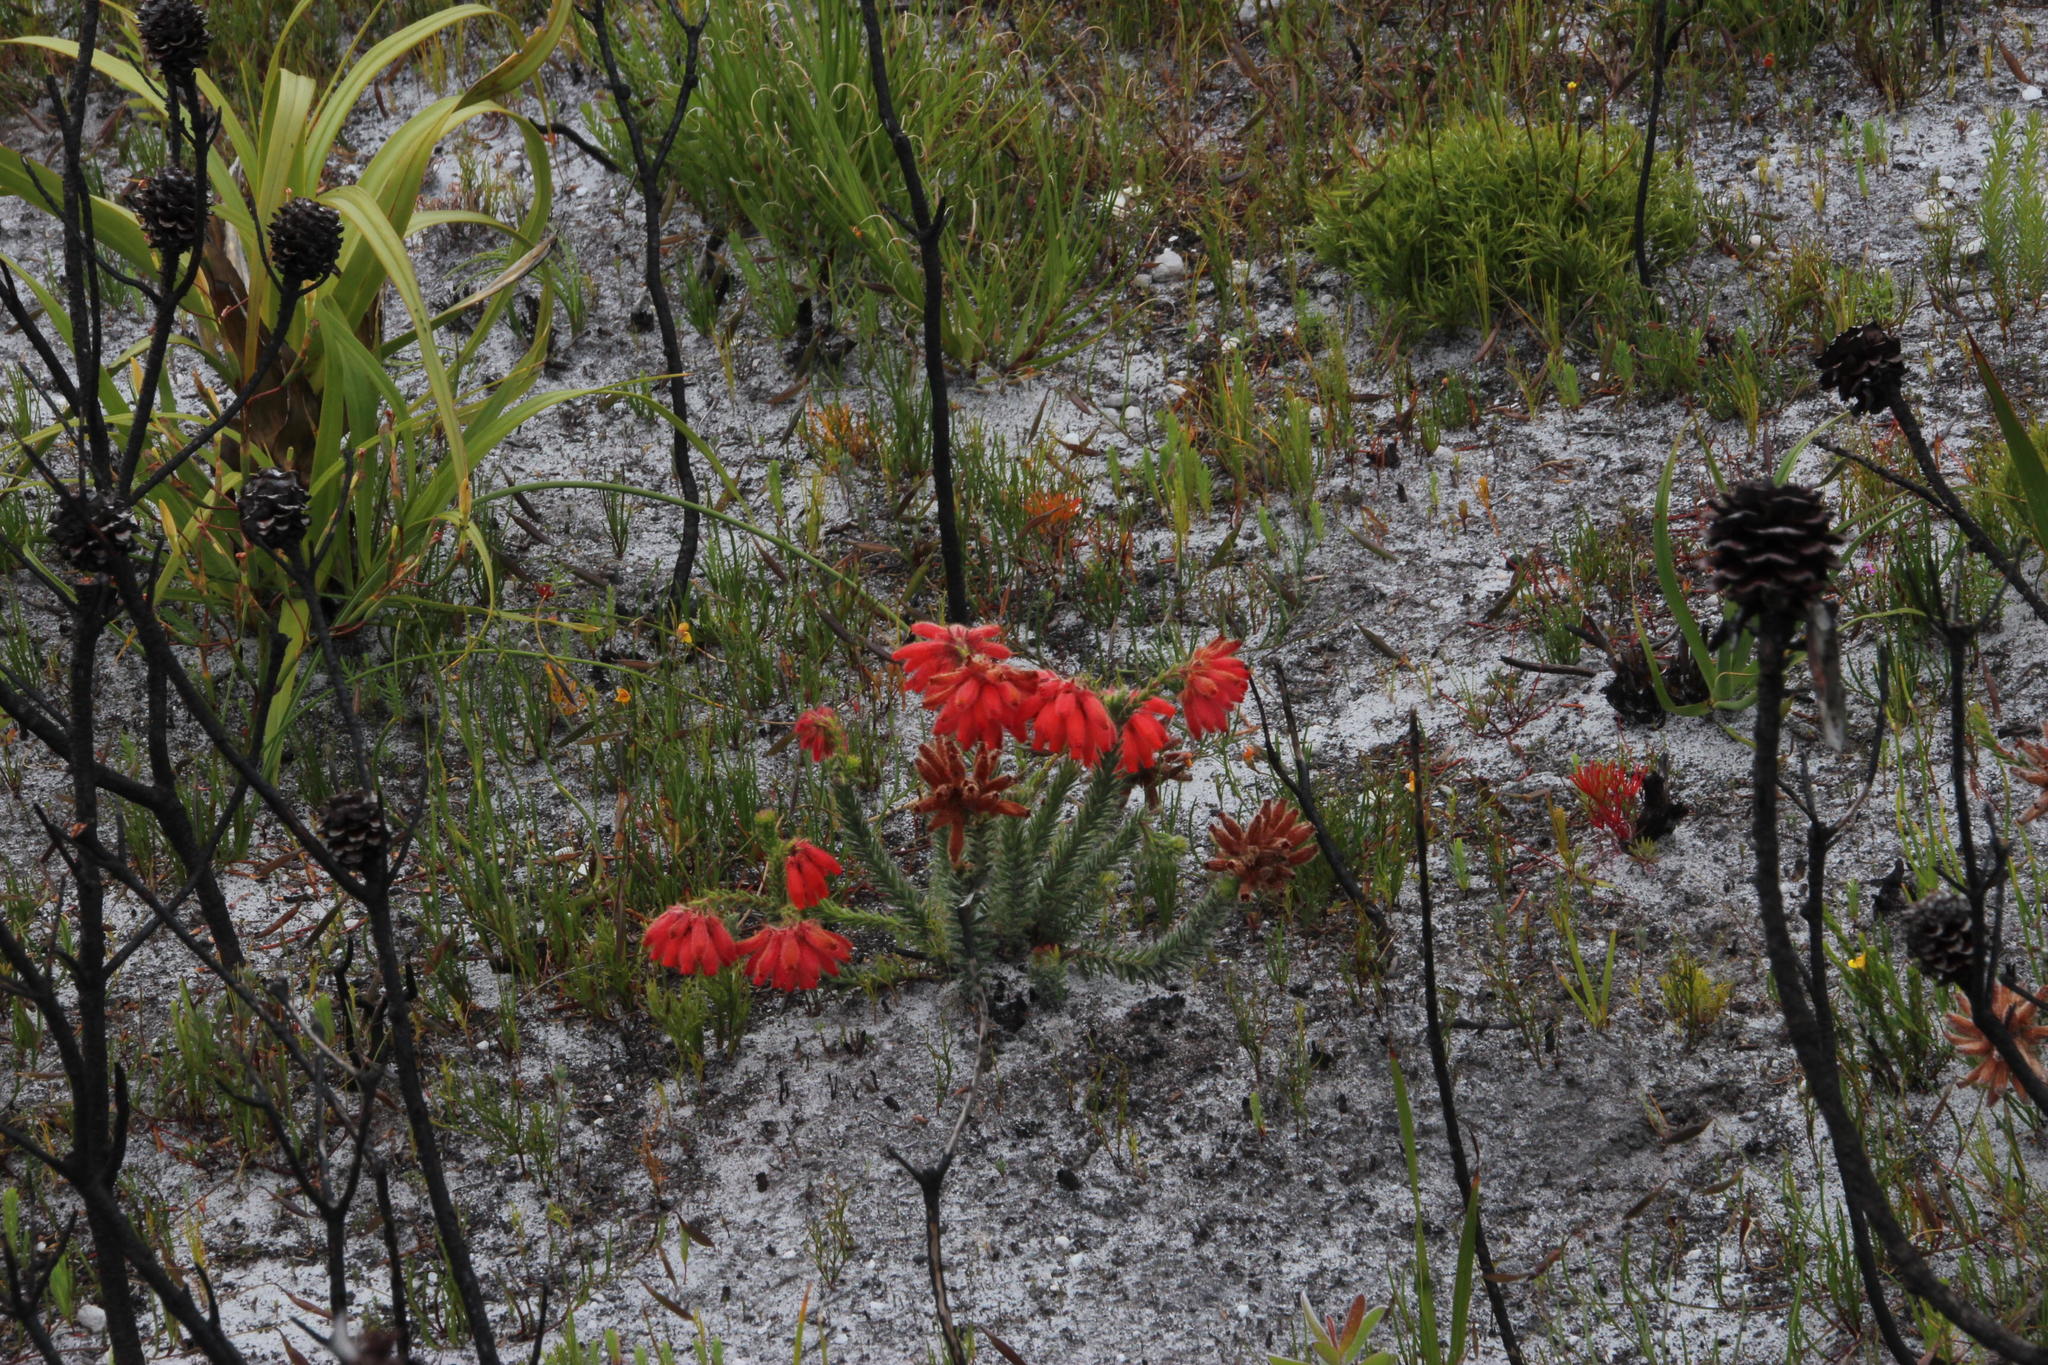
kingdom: Plantae
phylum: Tracheophyta
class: Magnoliopsida
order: Ericales
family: Ericaceae
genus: Erica
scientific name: Erica cerinthoides
